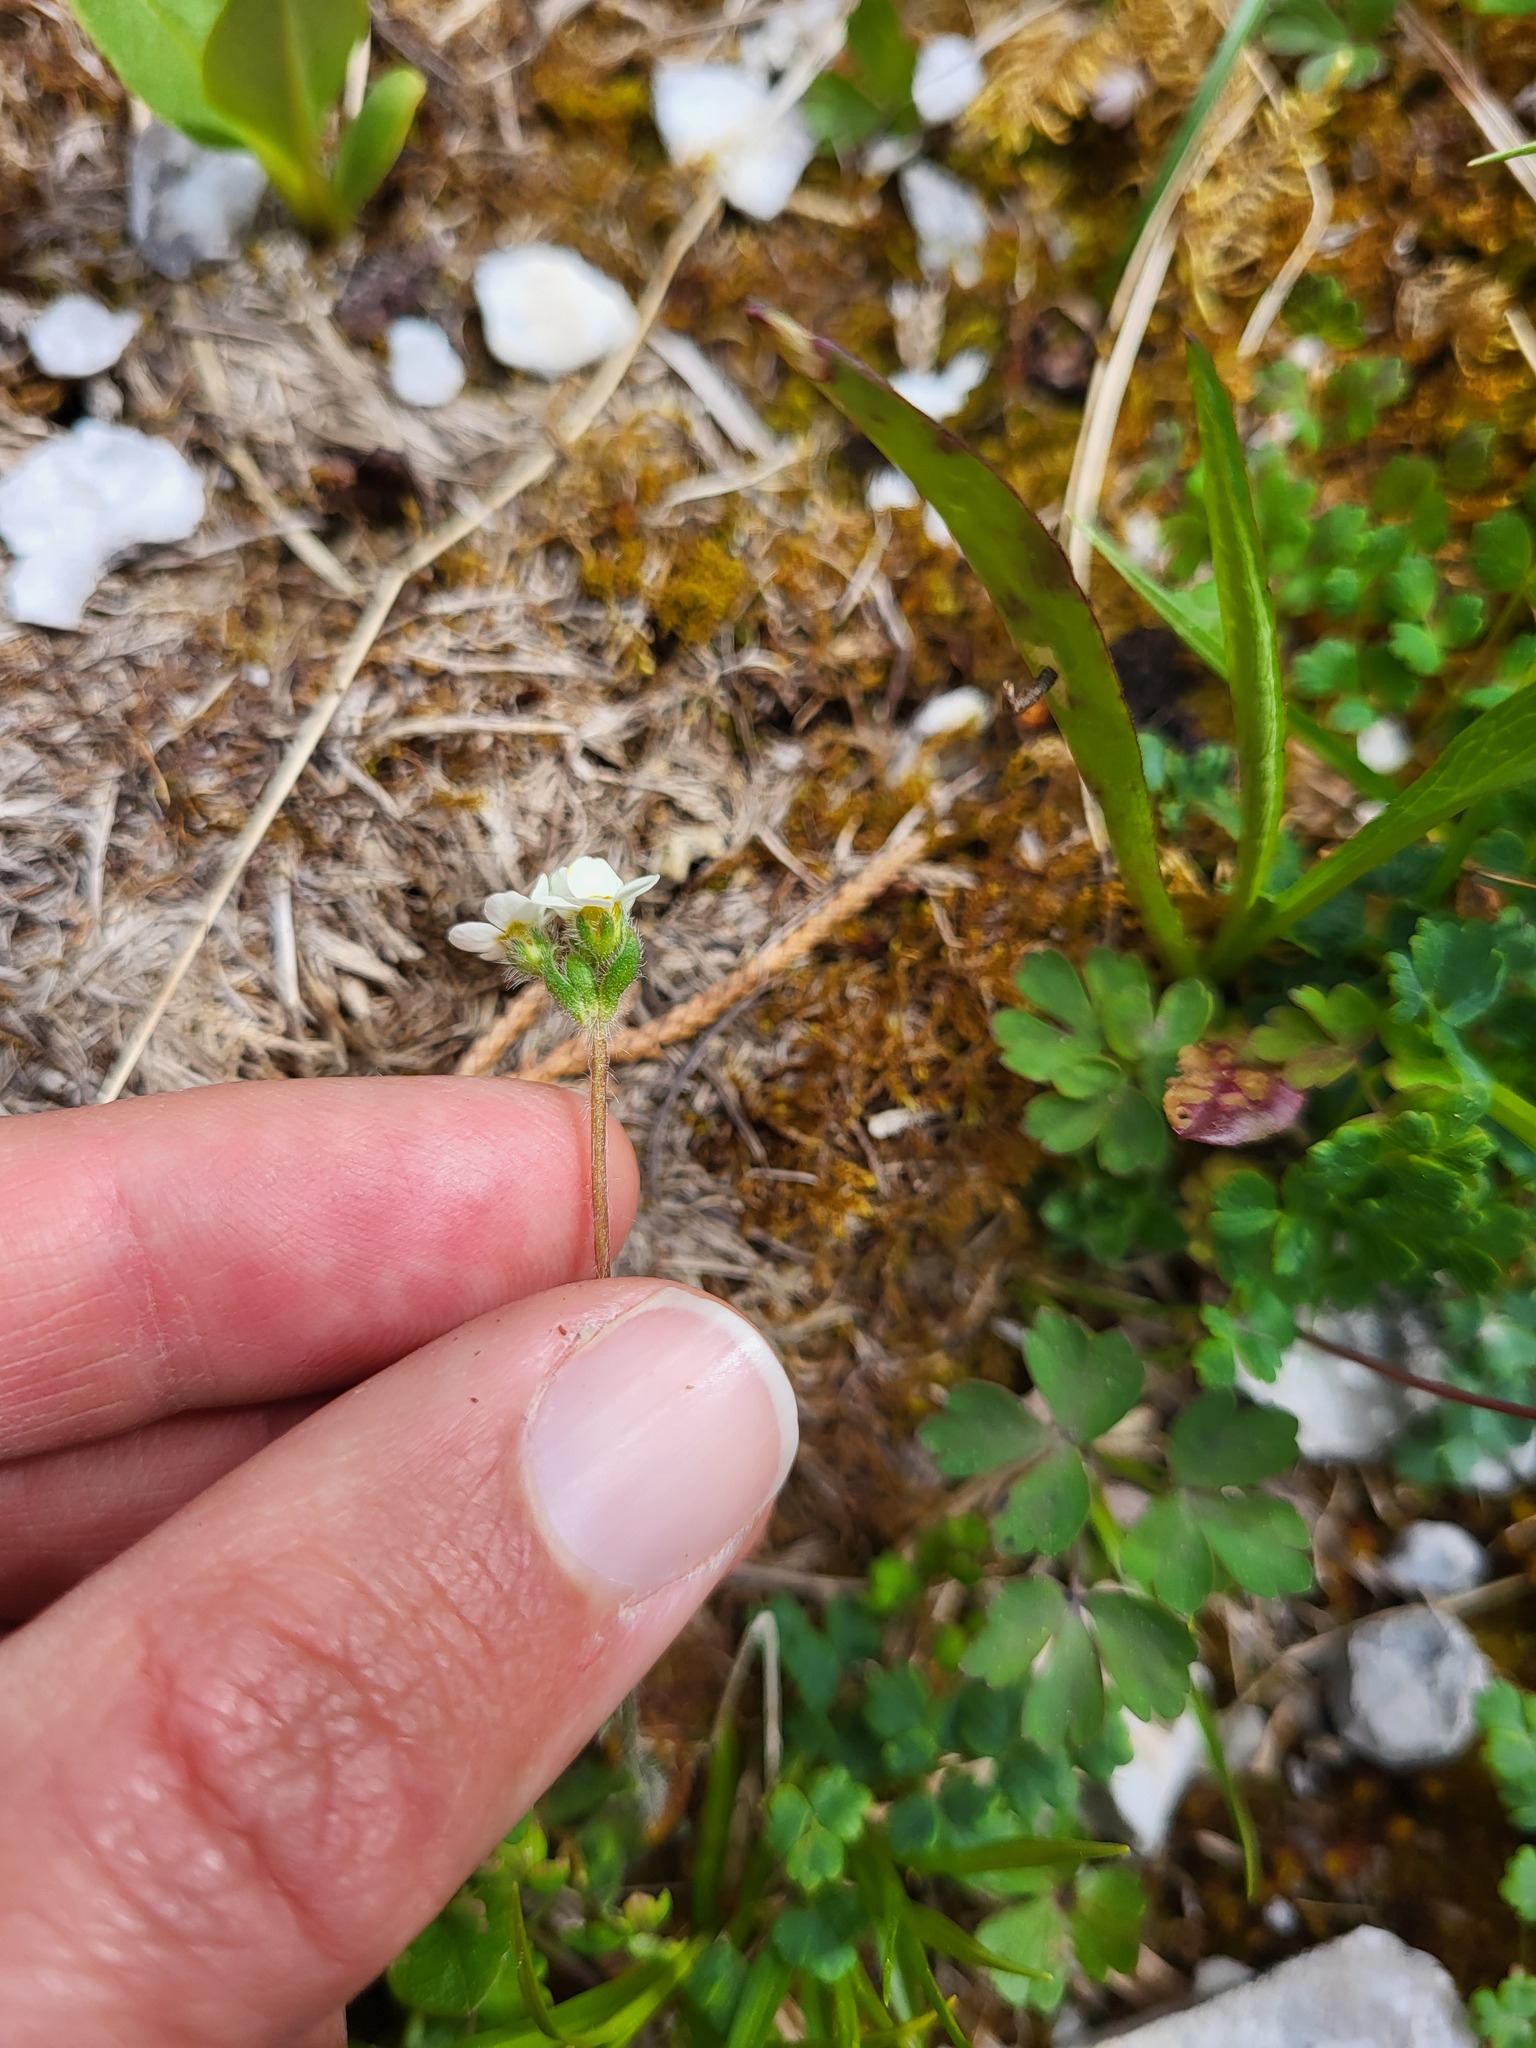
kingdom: Plantae
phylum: Tracheophyta
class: Magnoliopsida
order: Ericales
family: Primulaceae
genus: Androsace
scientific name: Androsace chamaejasme
